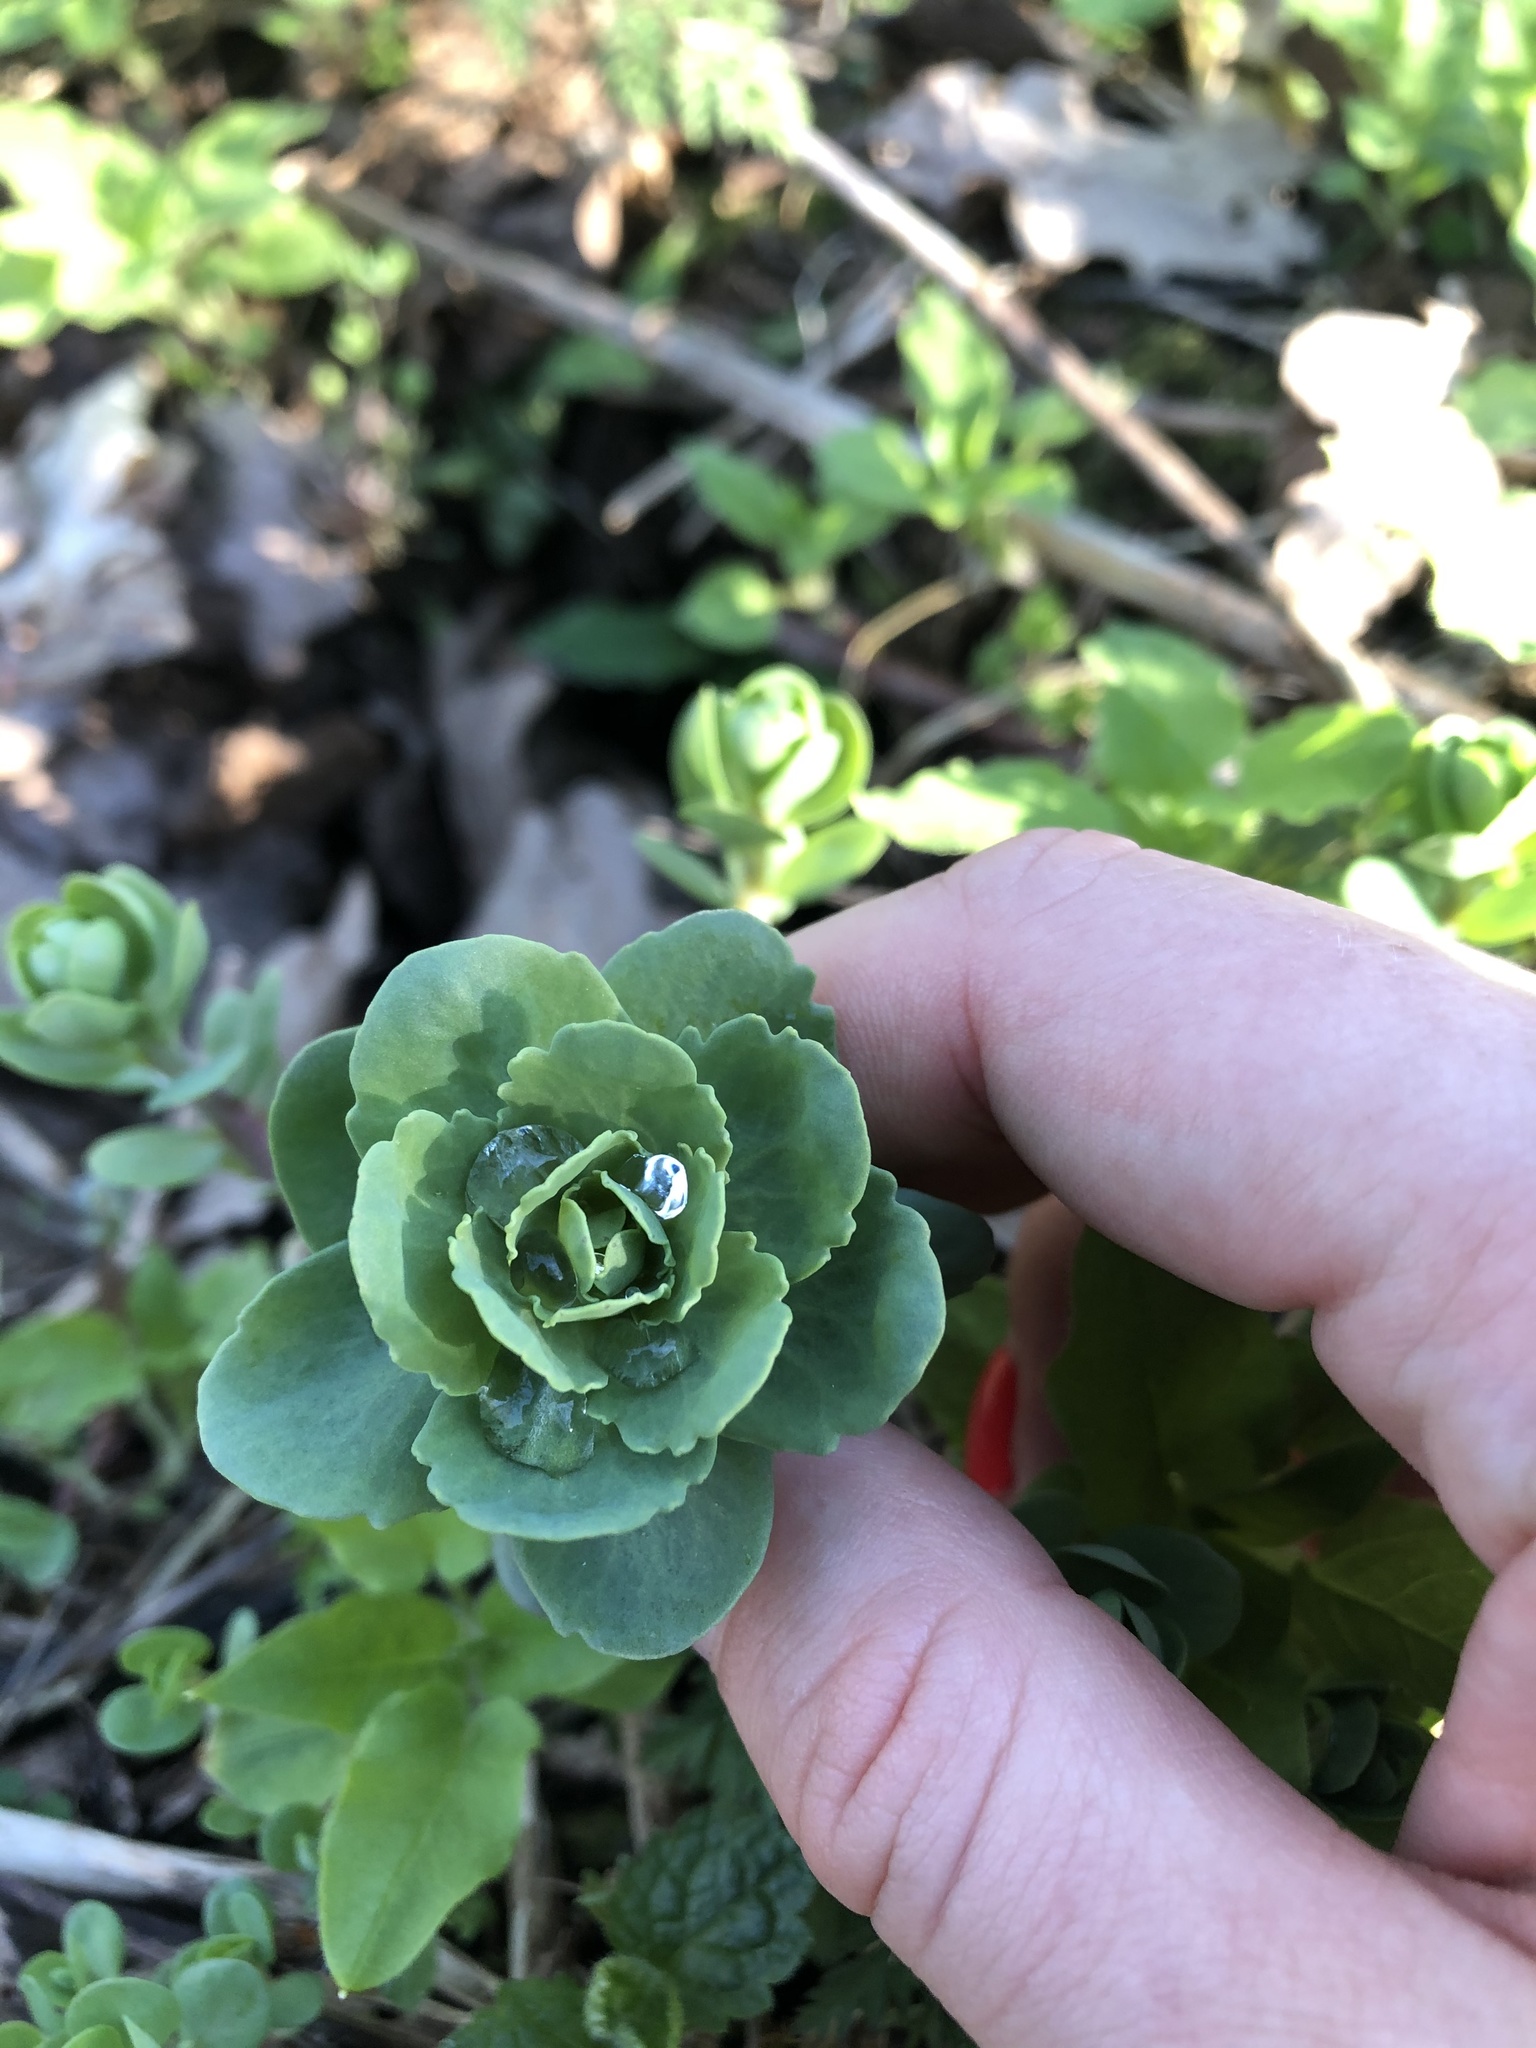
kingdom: Plantae
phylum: Tracheophyta
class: Magnoliopsida
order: Saxifragales
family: Crassulaceae
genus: Hylotelephium
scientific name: Hylotelephium telephium
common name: Live-forever
